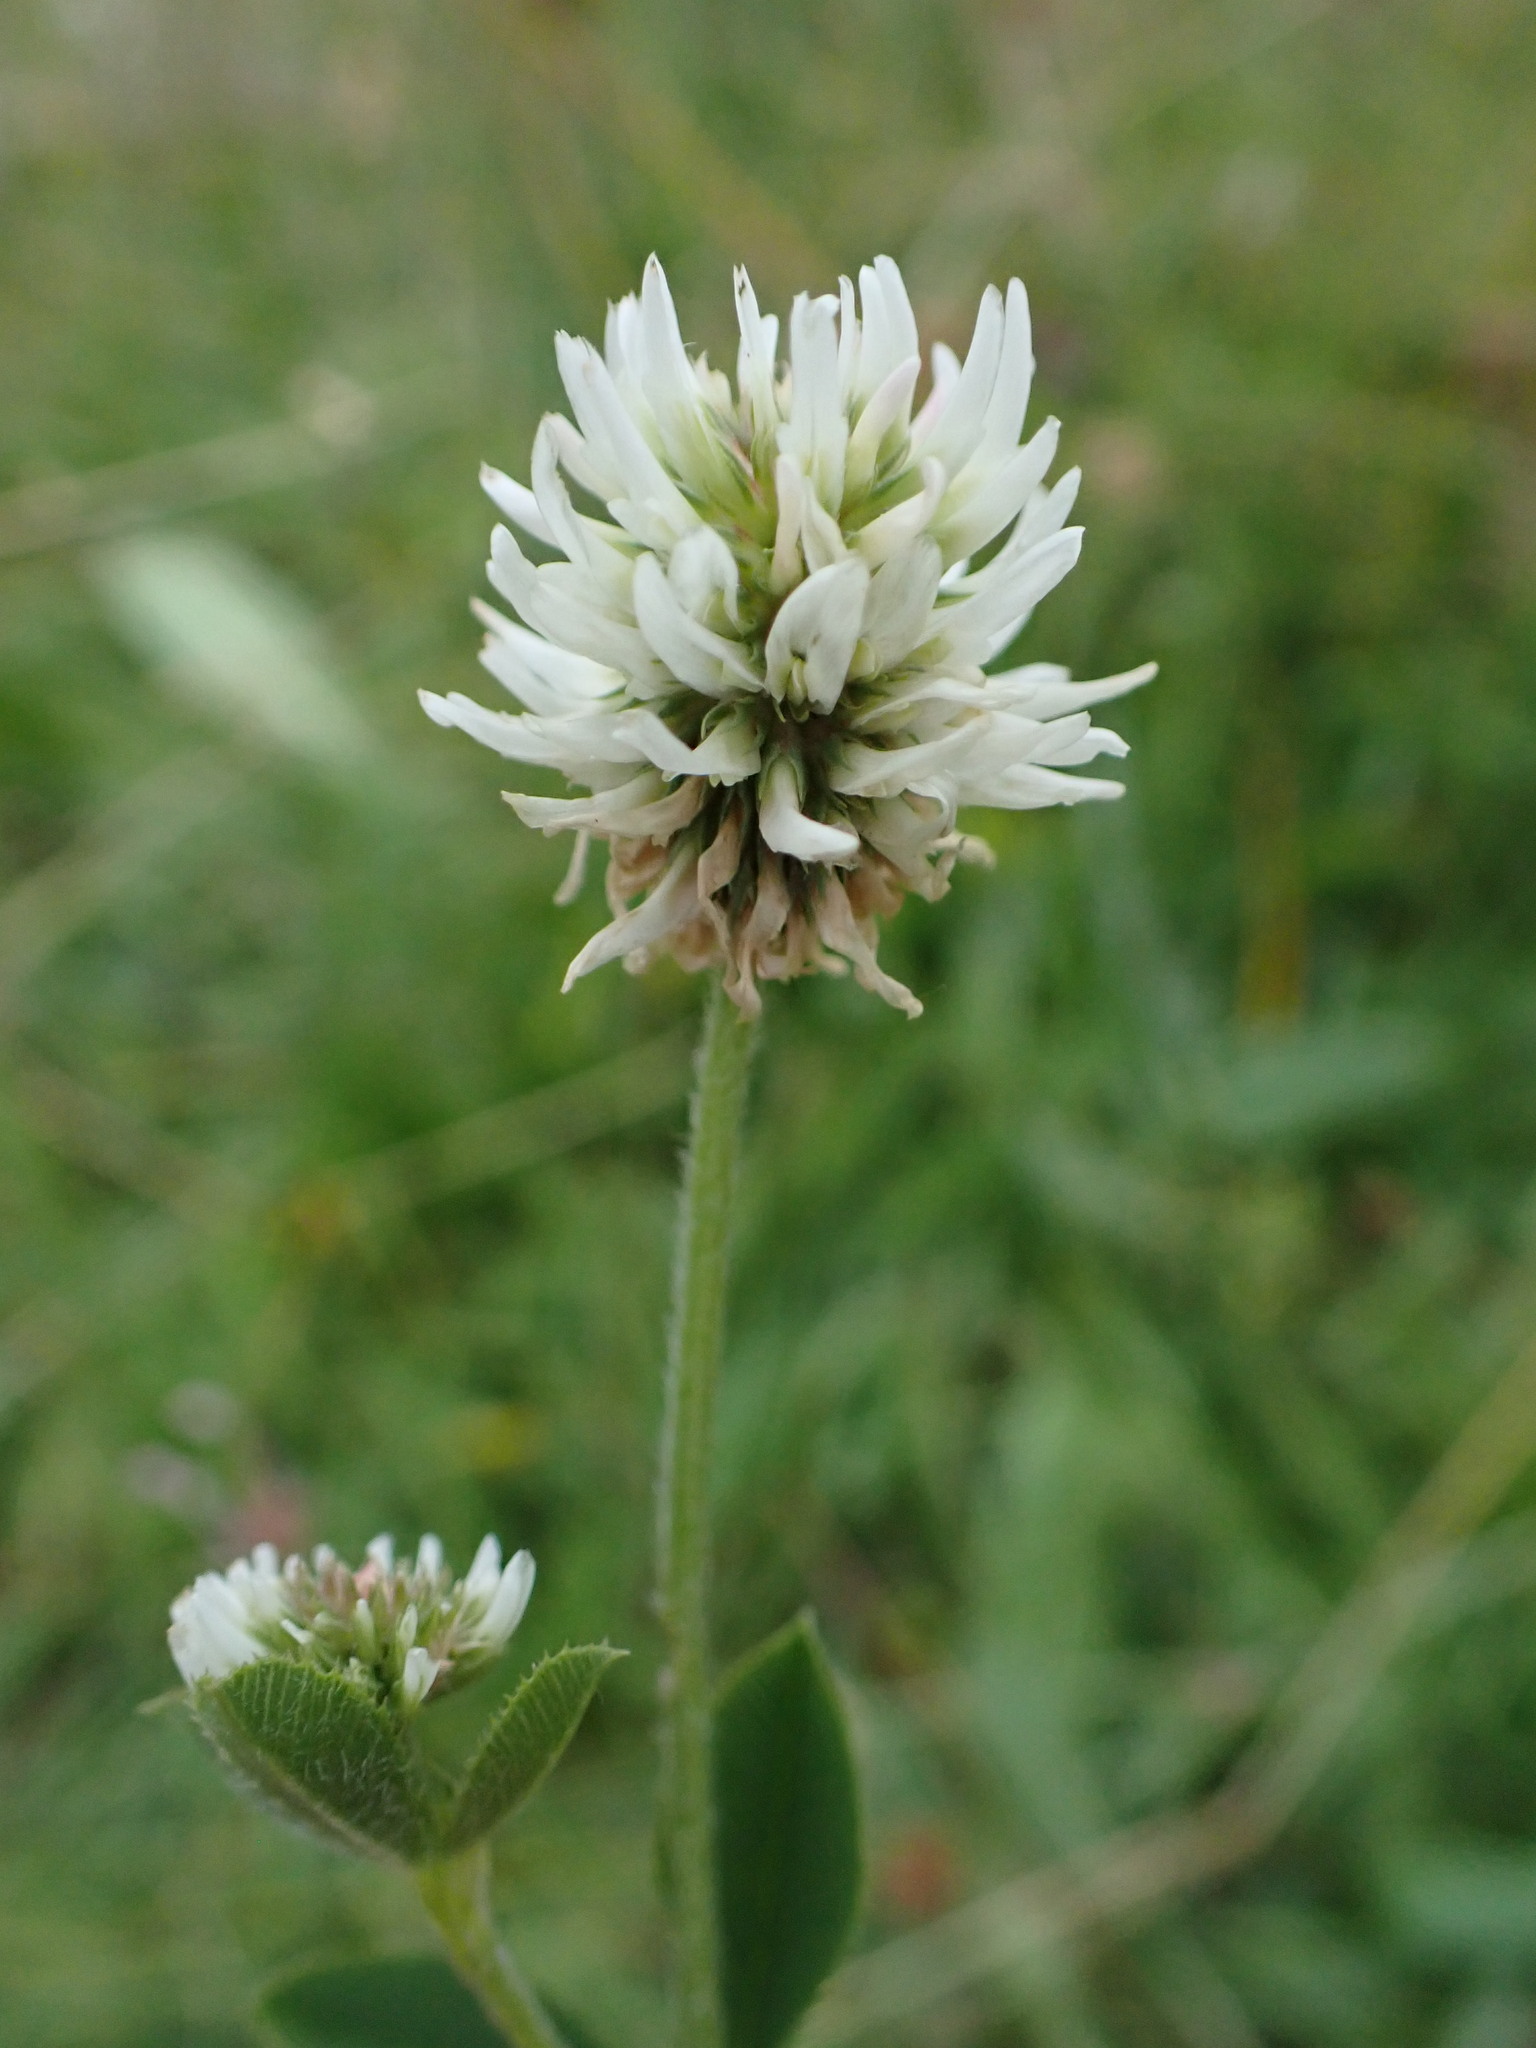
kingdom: Plantae
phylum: Tracheophyta
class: Magnoliopsida
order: Fabales
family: Fabaceae
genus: Trifolium
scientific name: Trifolium montanum
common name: Mountain clover
